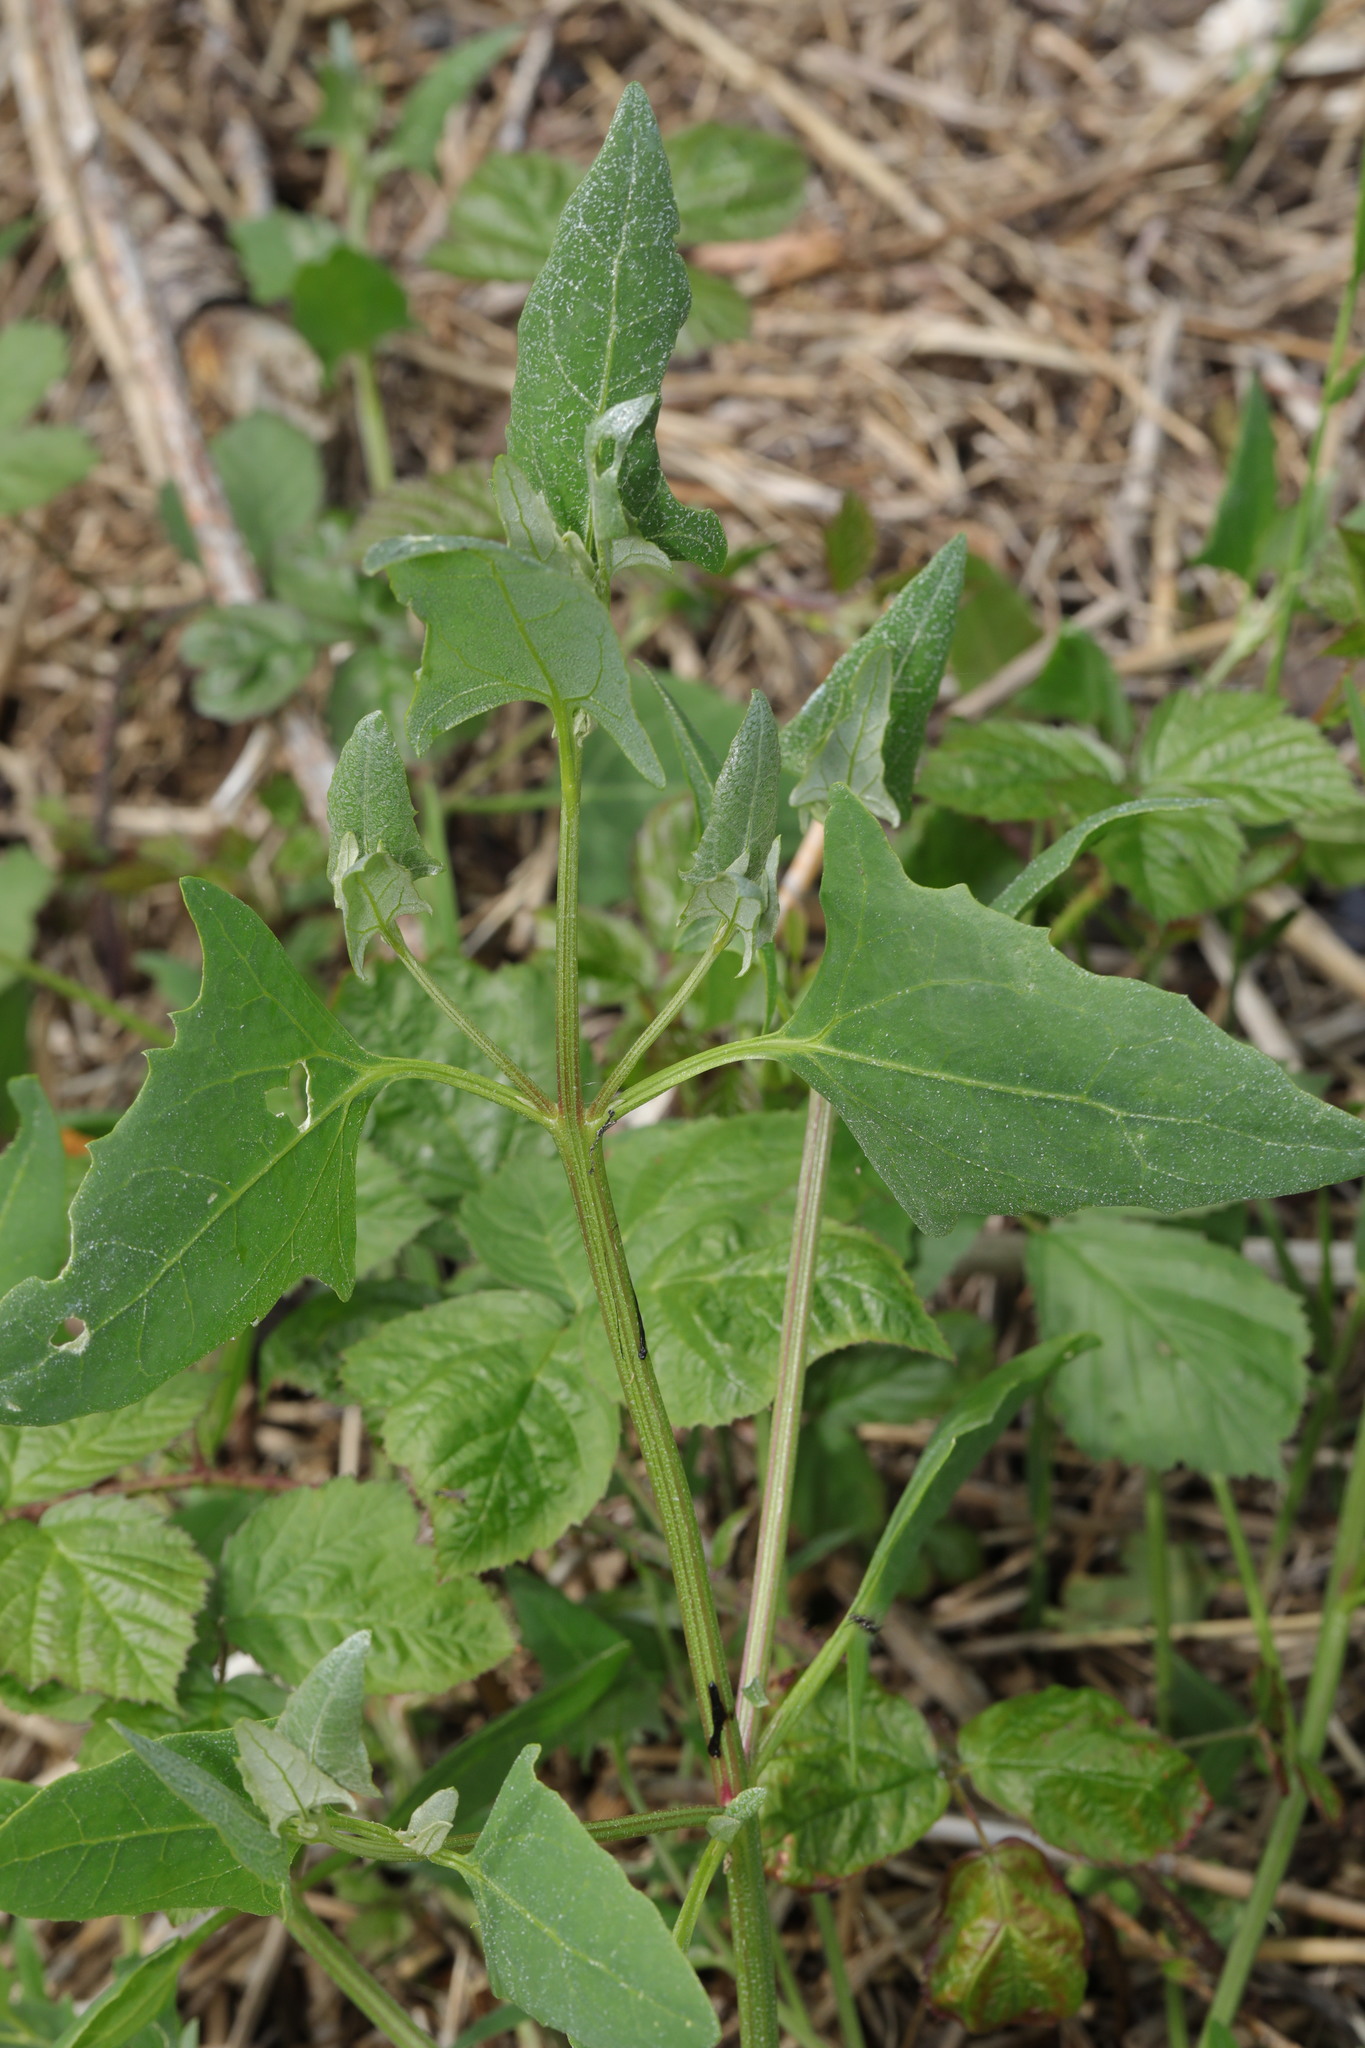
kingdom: Plantae
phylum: Tracheophyta
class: Magnoliopsida
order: Caryophyllales
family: Amaranthaceae
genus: Atriplex
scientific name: Atriplex prostrata
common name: Spear-leaved orache
